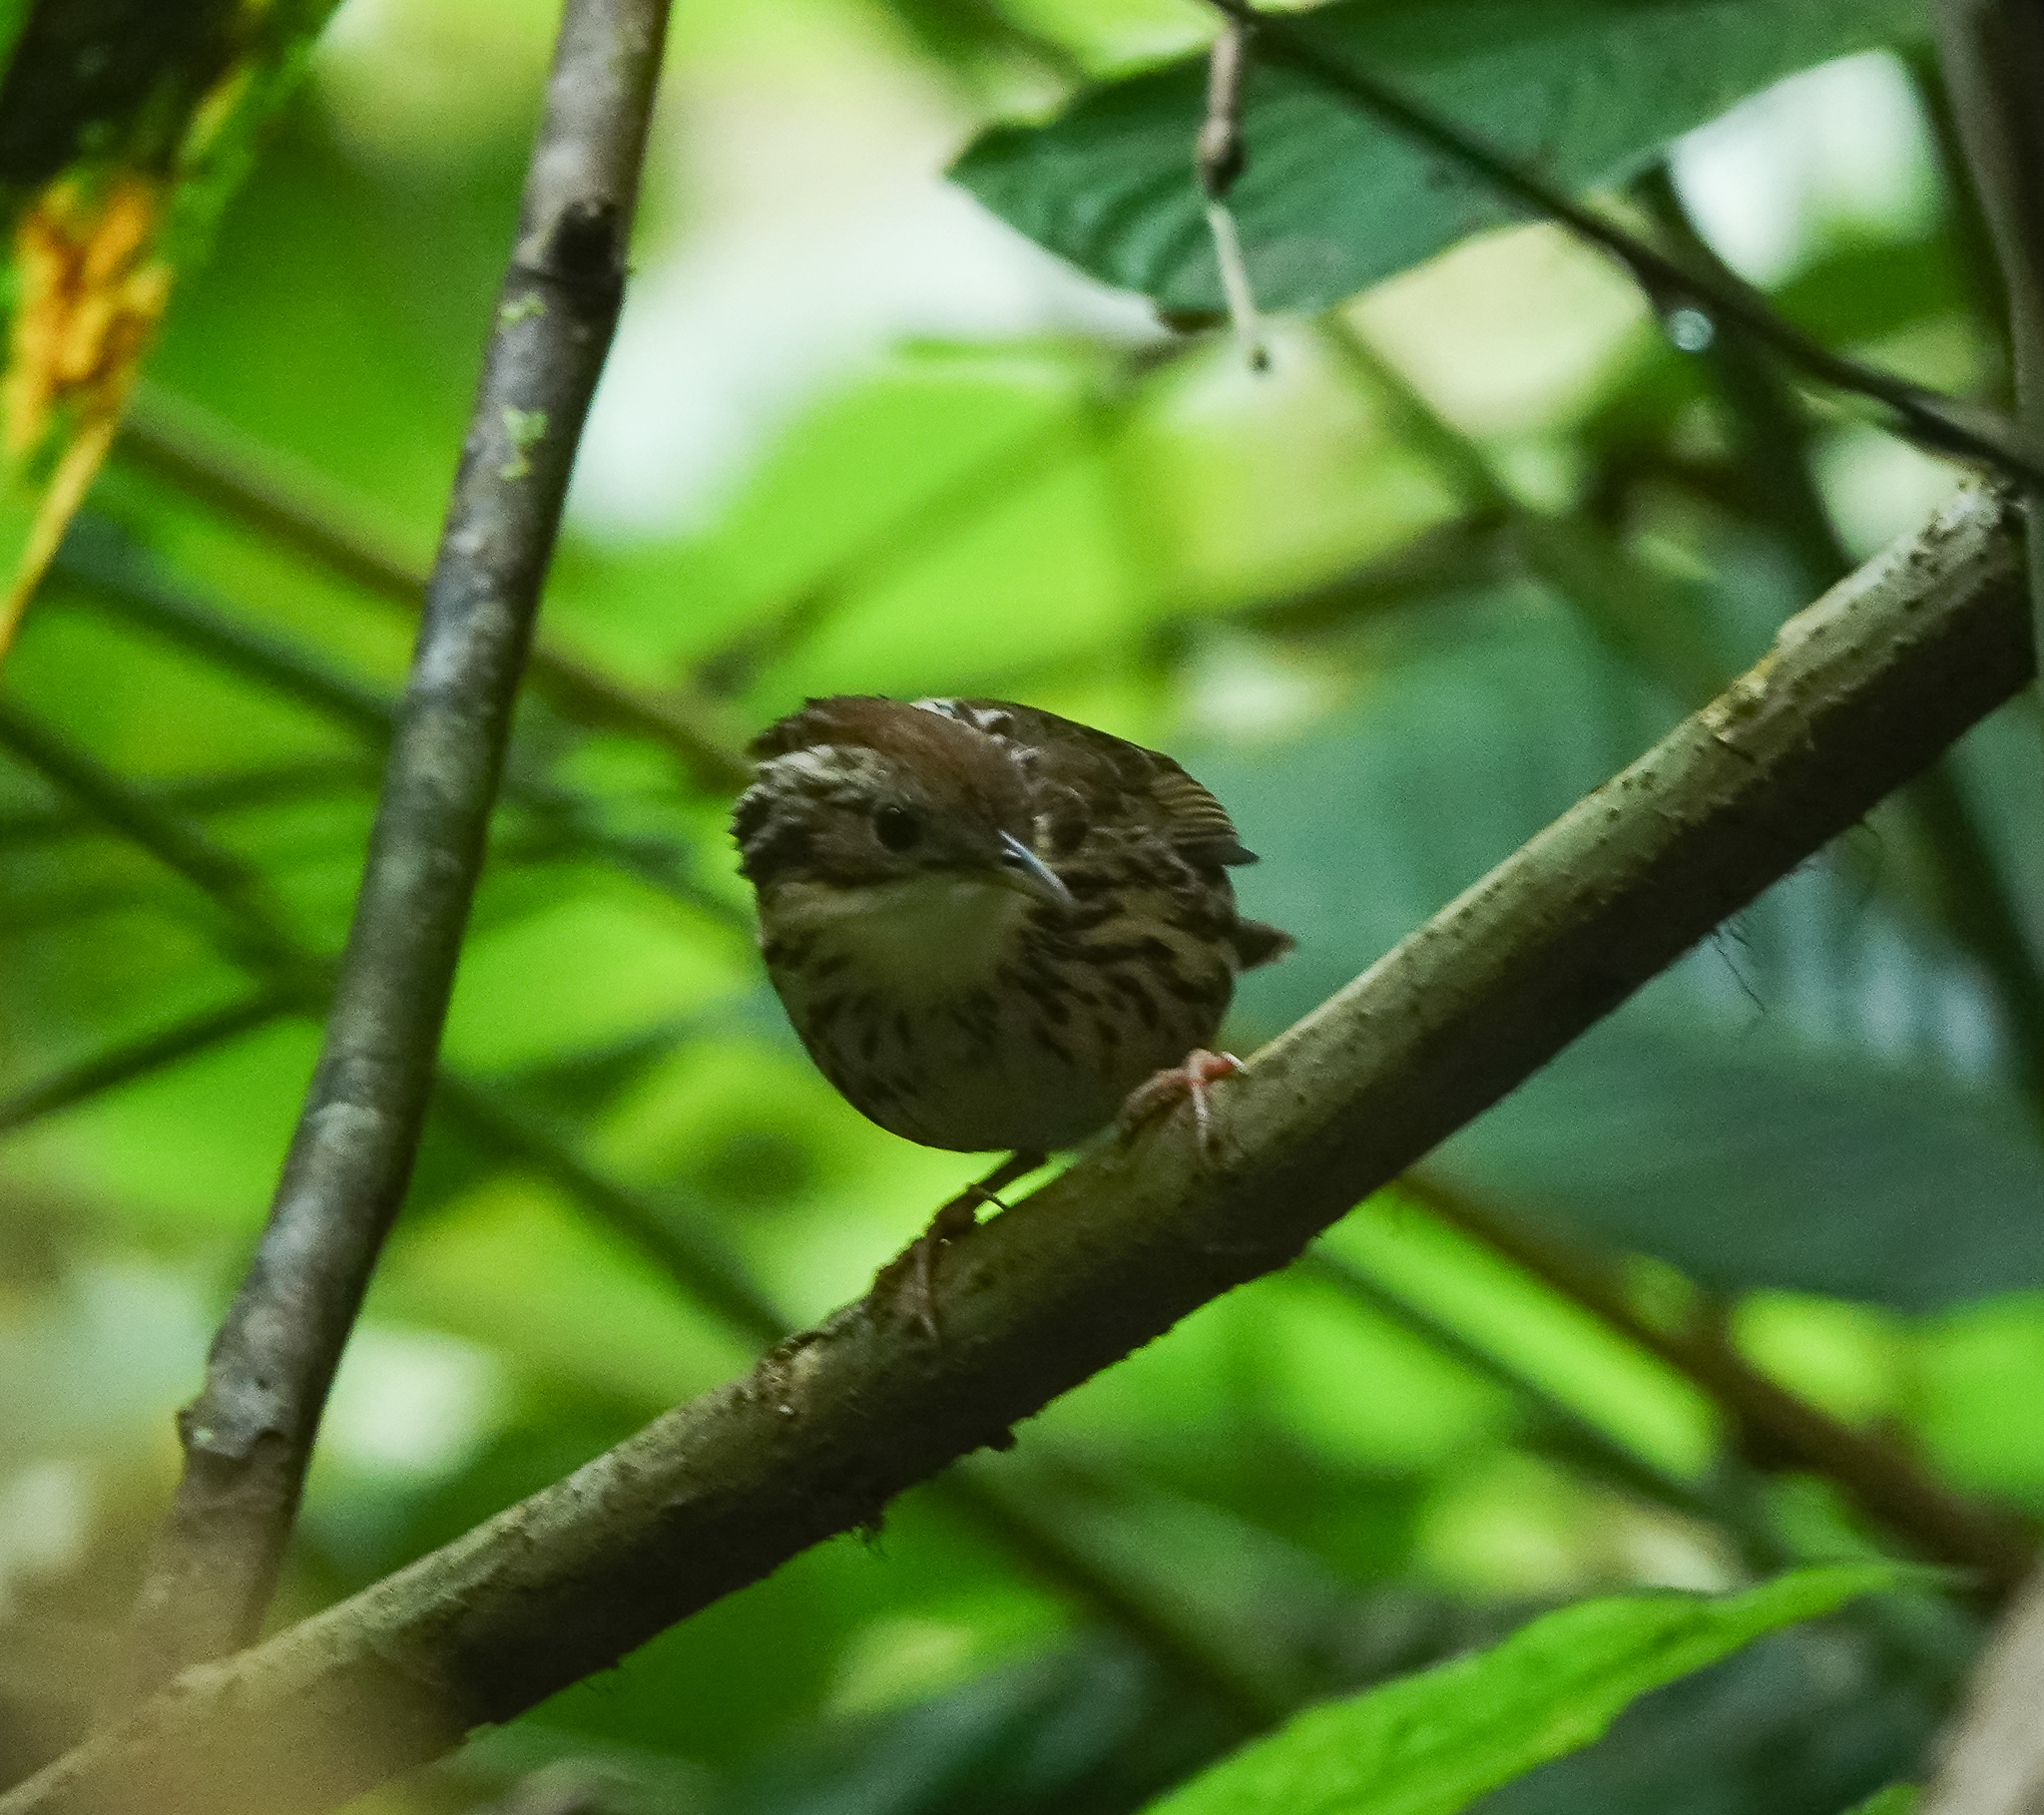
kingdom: Animalia
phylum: Chordata
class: Aves
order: Passeriformes
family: Pellorneidae
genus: Pellorneum
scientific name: Pellorneum ruficeps
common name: Puff-throated babbler
